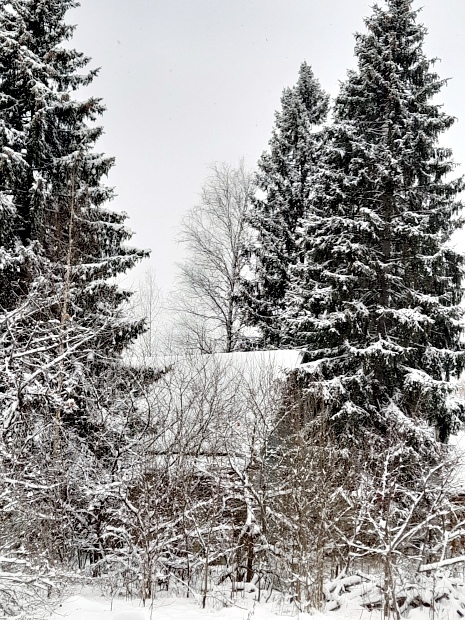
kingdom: Plantae
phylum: Tracheophyta
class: Pinopsida
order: Pinales
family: Pinaceae
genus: Picea
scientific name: Picea abies
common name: Norway spruce
